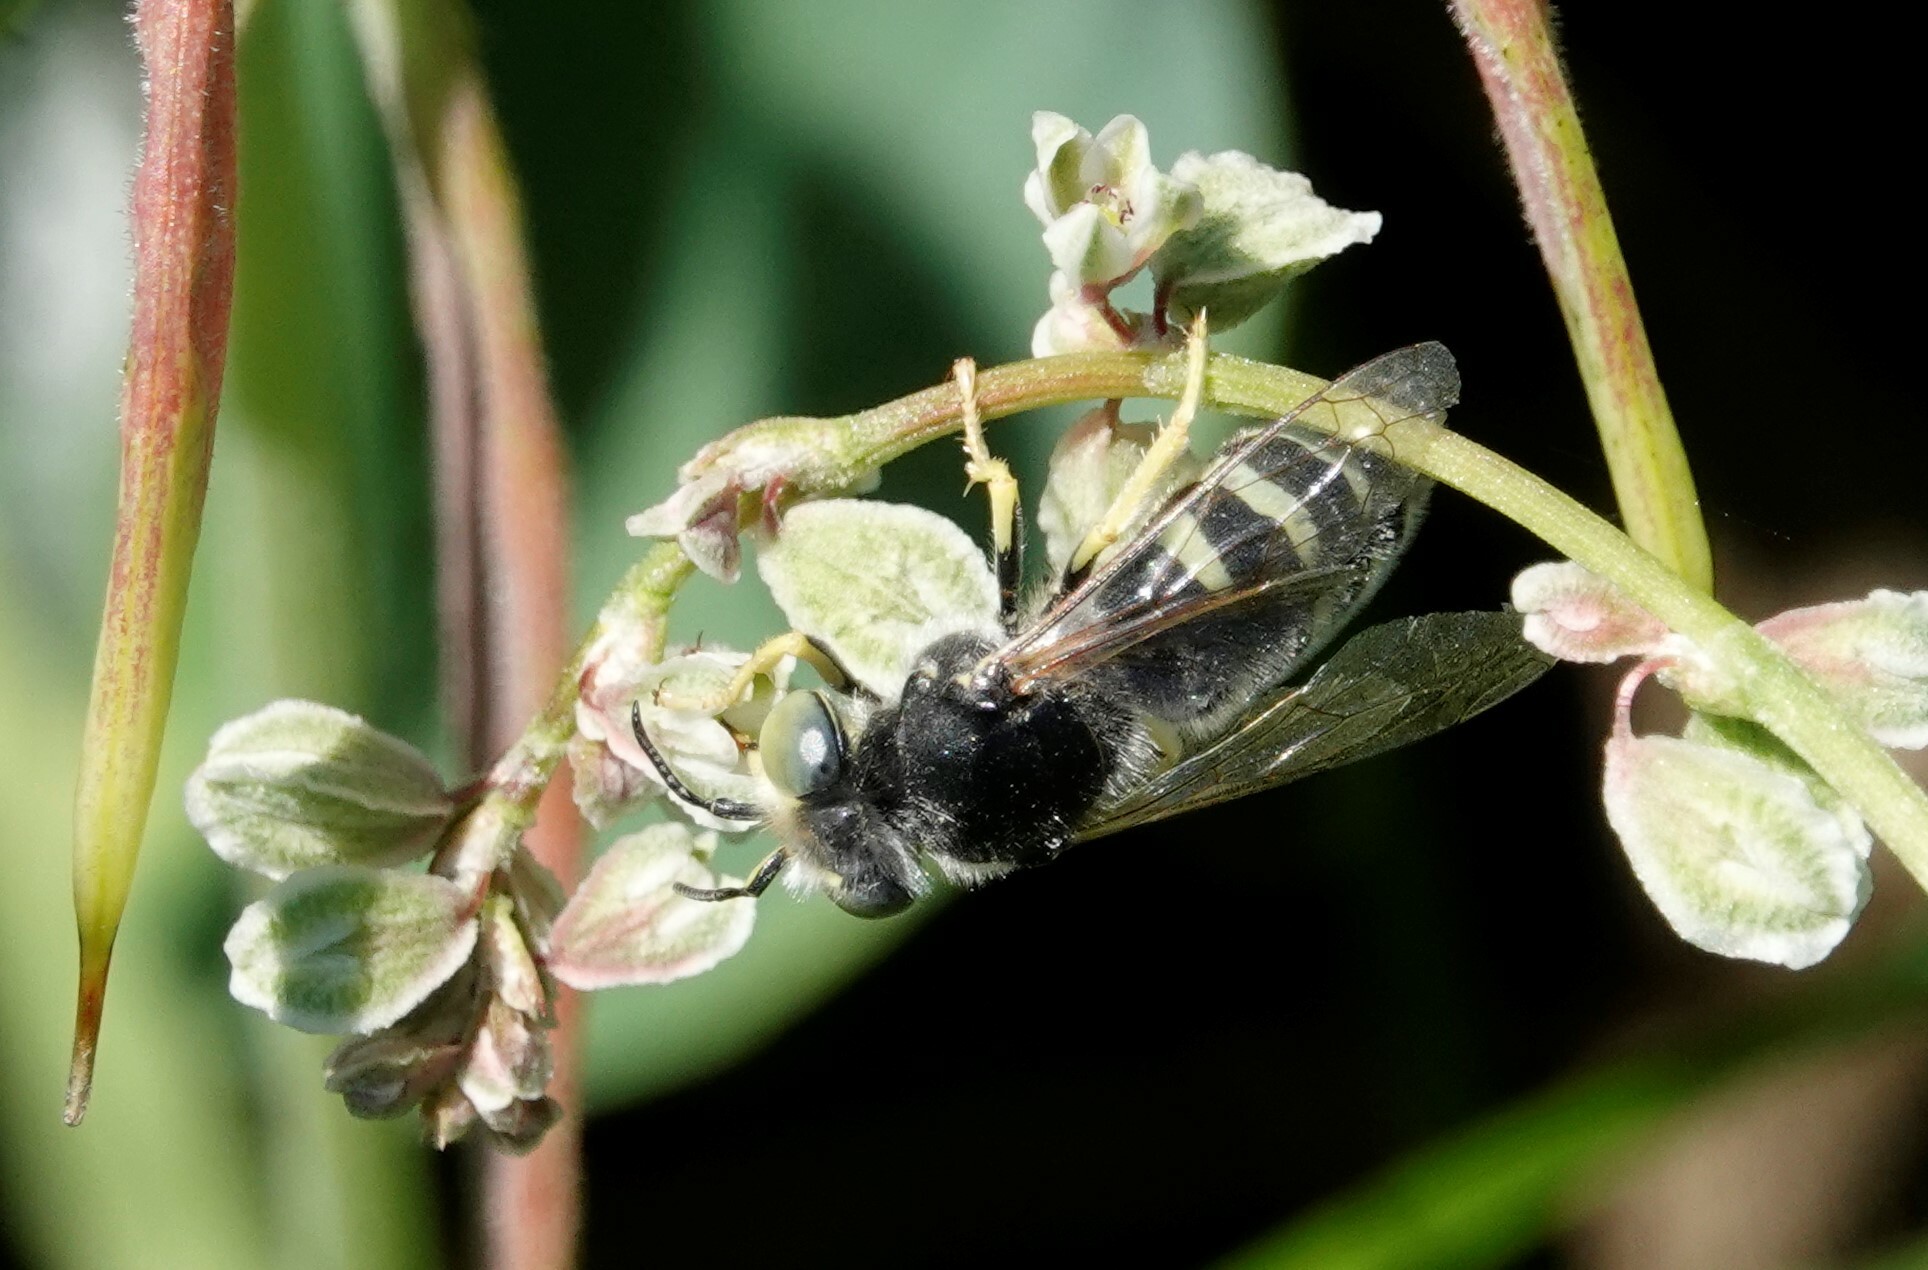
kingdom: Animalia
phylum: Arthropoda
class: Insecta
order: Hymenoptera
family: Crabronidae
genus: Bembix
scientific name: Bembix americana
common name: American sand wasp
